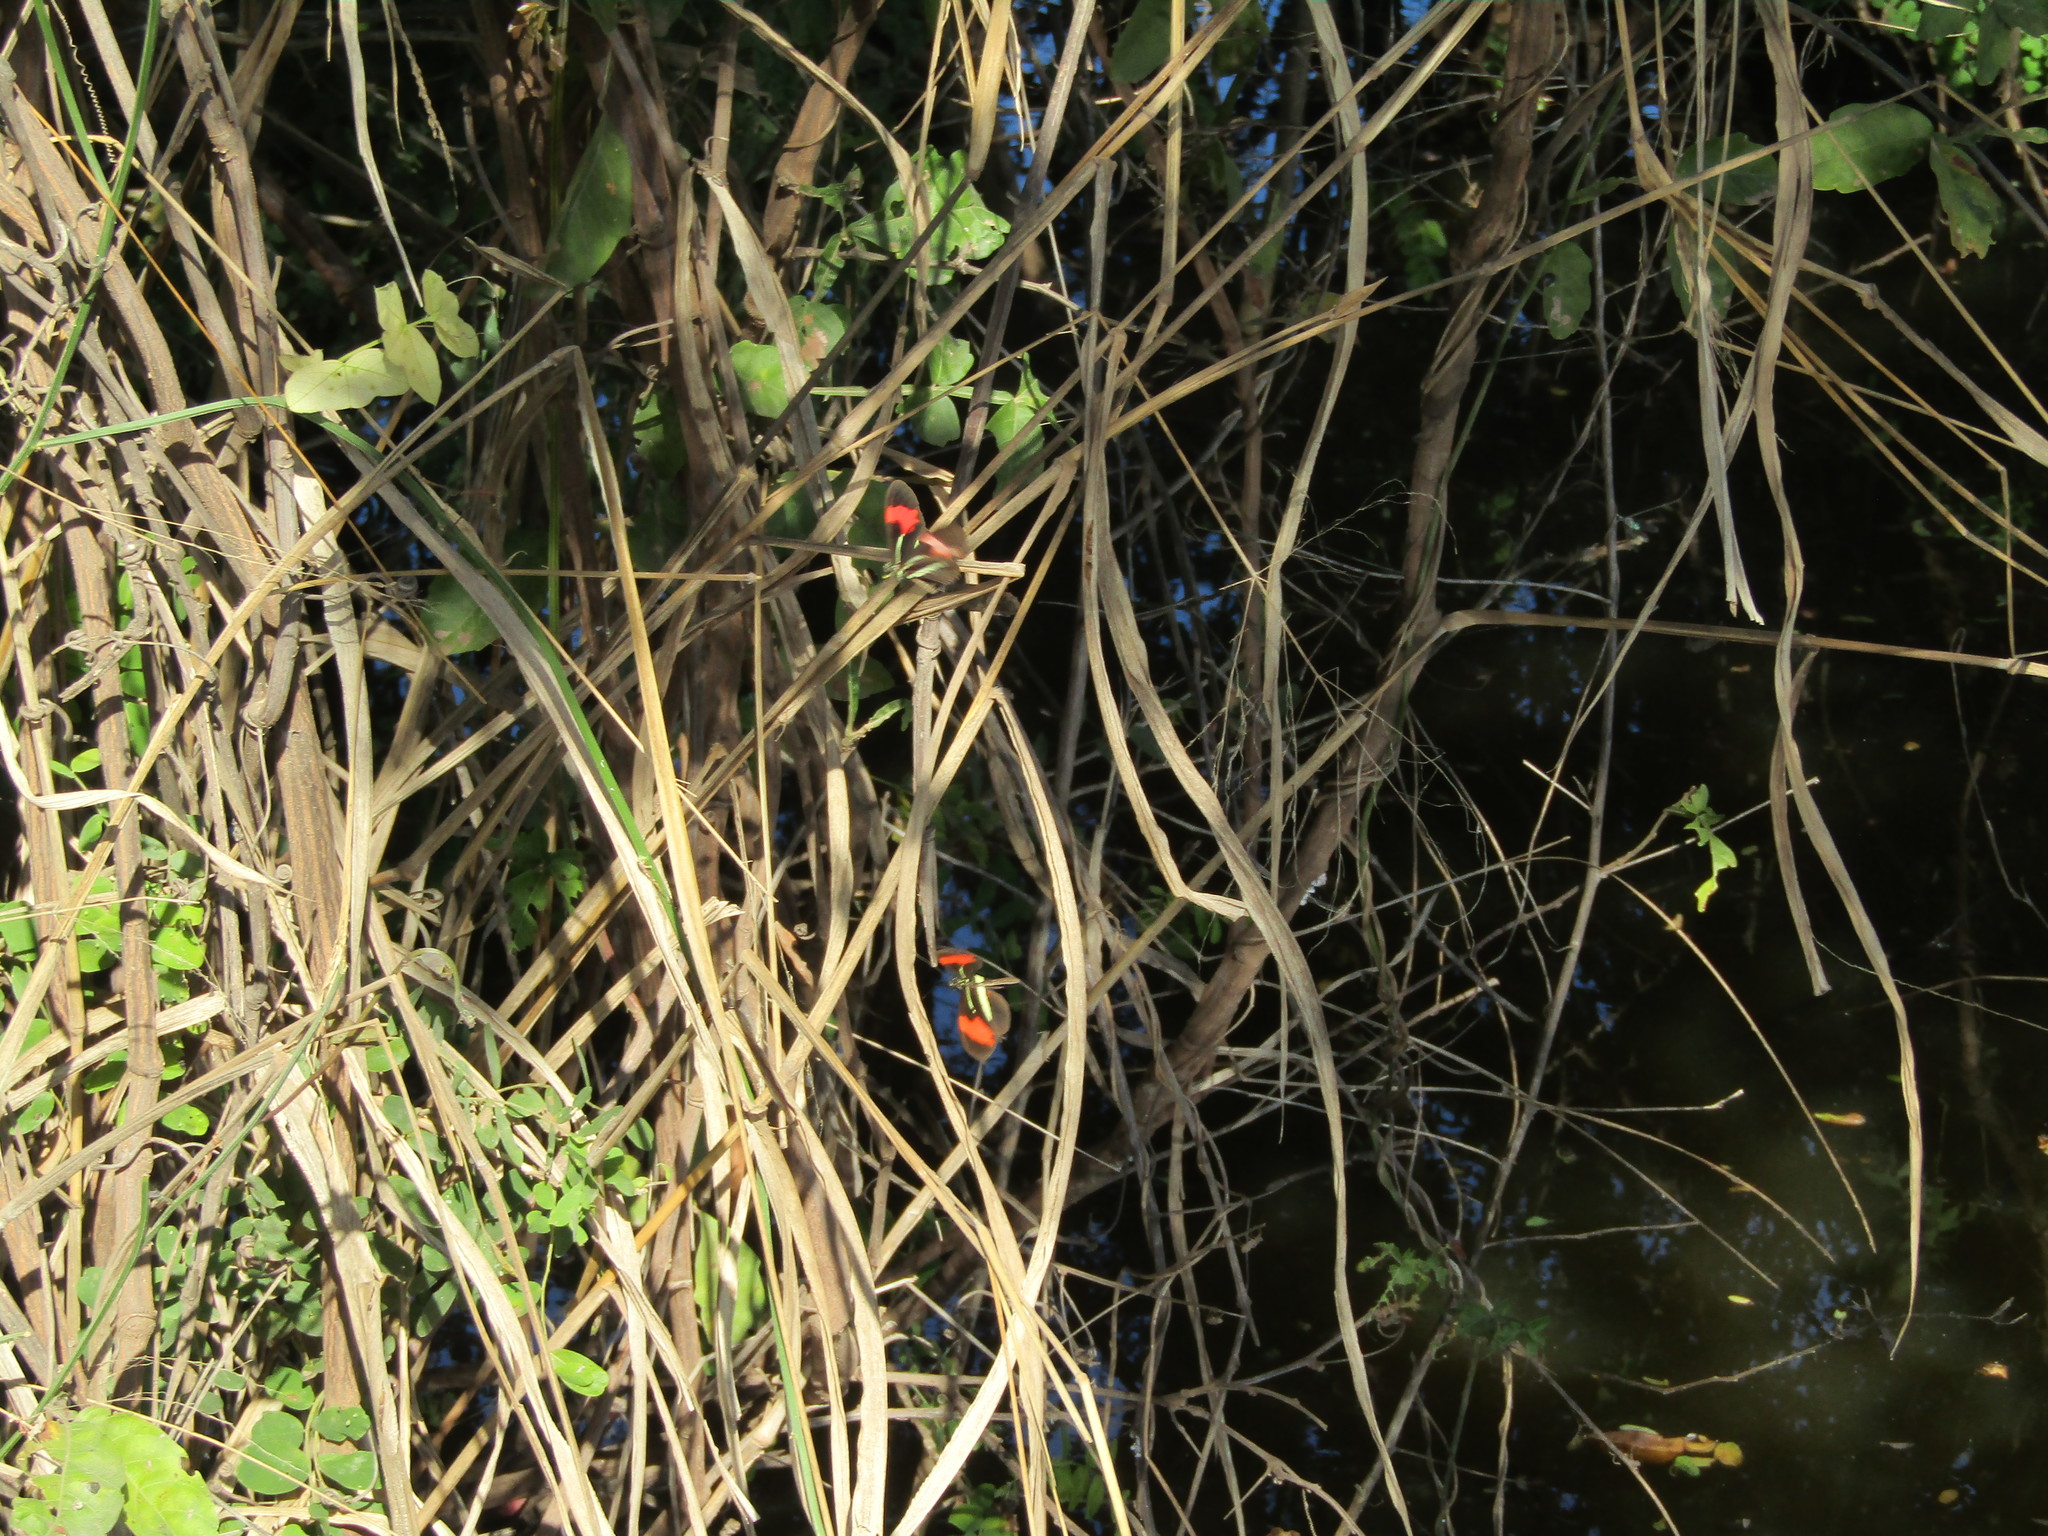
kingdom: Animalia
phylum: Arthropoda
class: Insecta
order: Lepidoptera
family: Nymphalidae
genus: Heliconius
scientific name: Heliconius erato
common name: Common patch longwing
